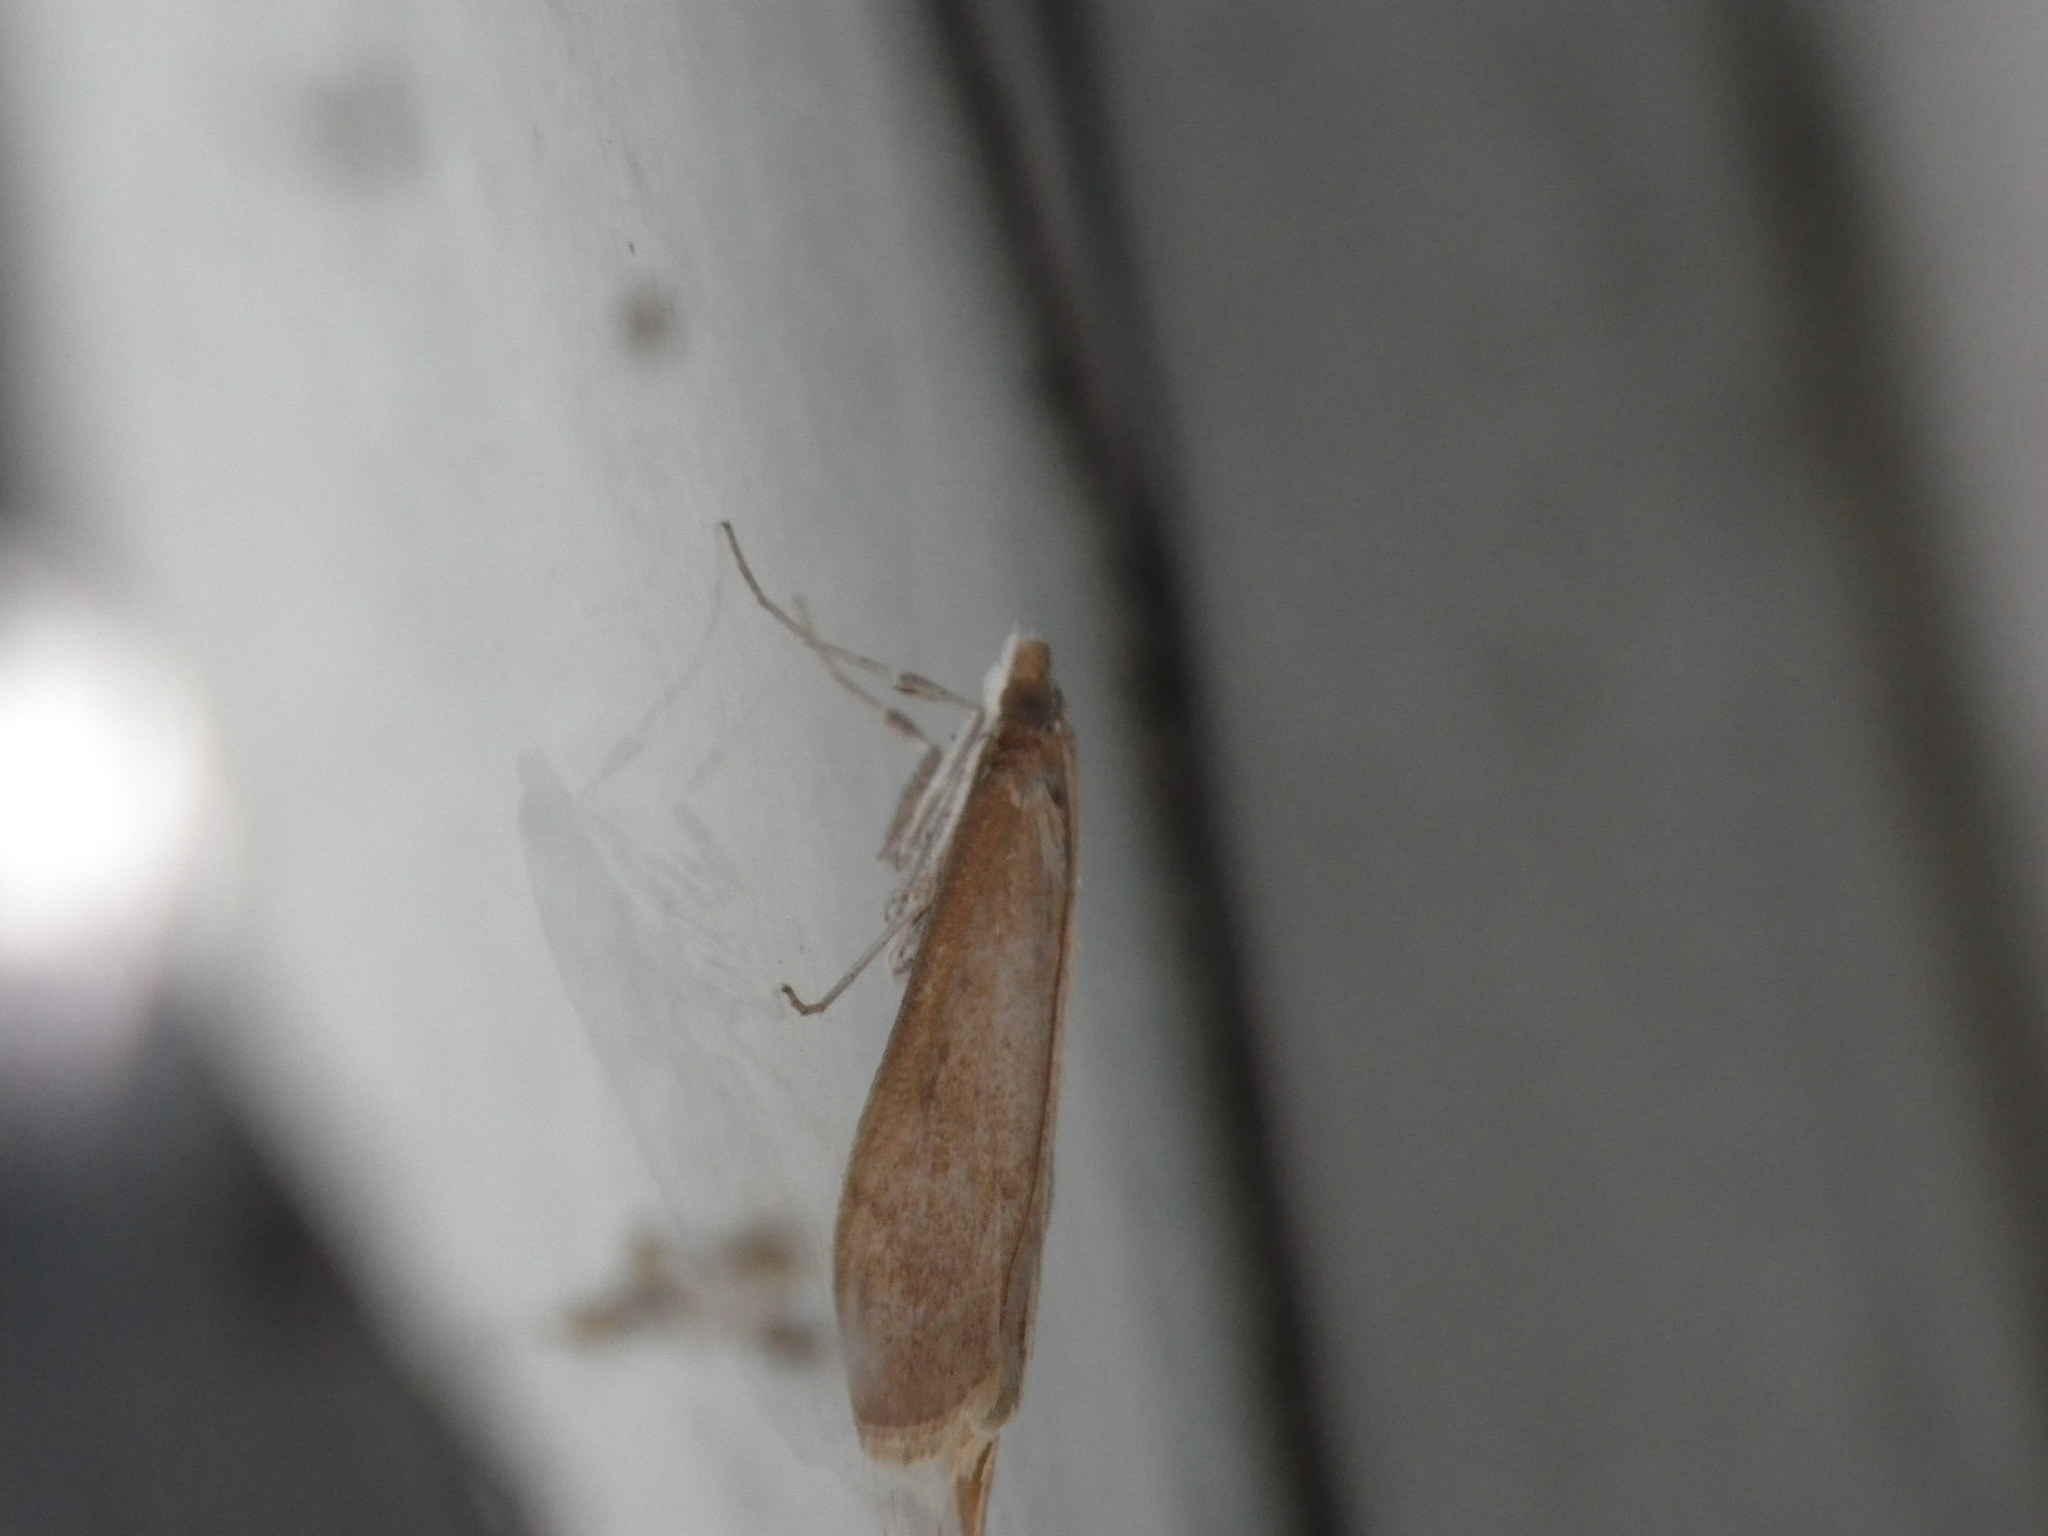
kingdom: Animalia
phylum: Arthropoda
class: Insecta
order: Lepidoptera
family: Crambidae
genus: Uresiphita
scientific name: Uresiphita reversalis
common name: Genista broom moth
